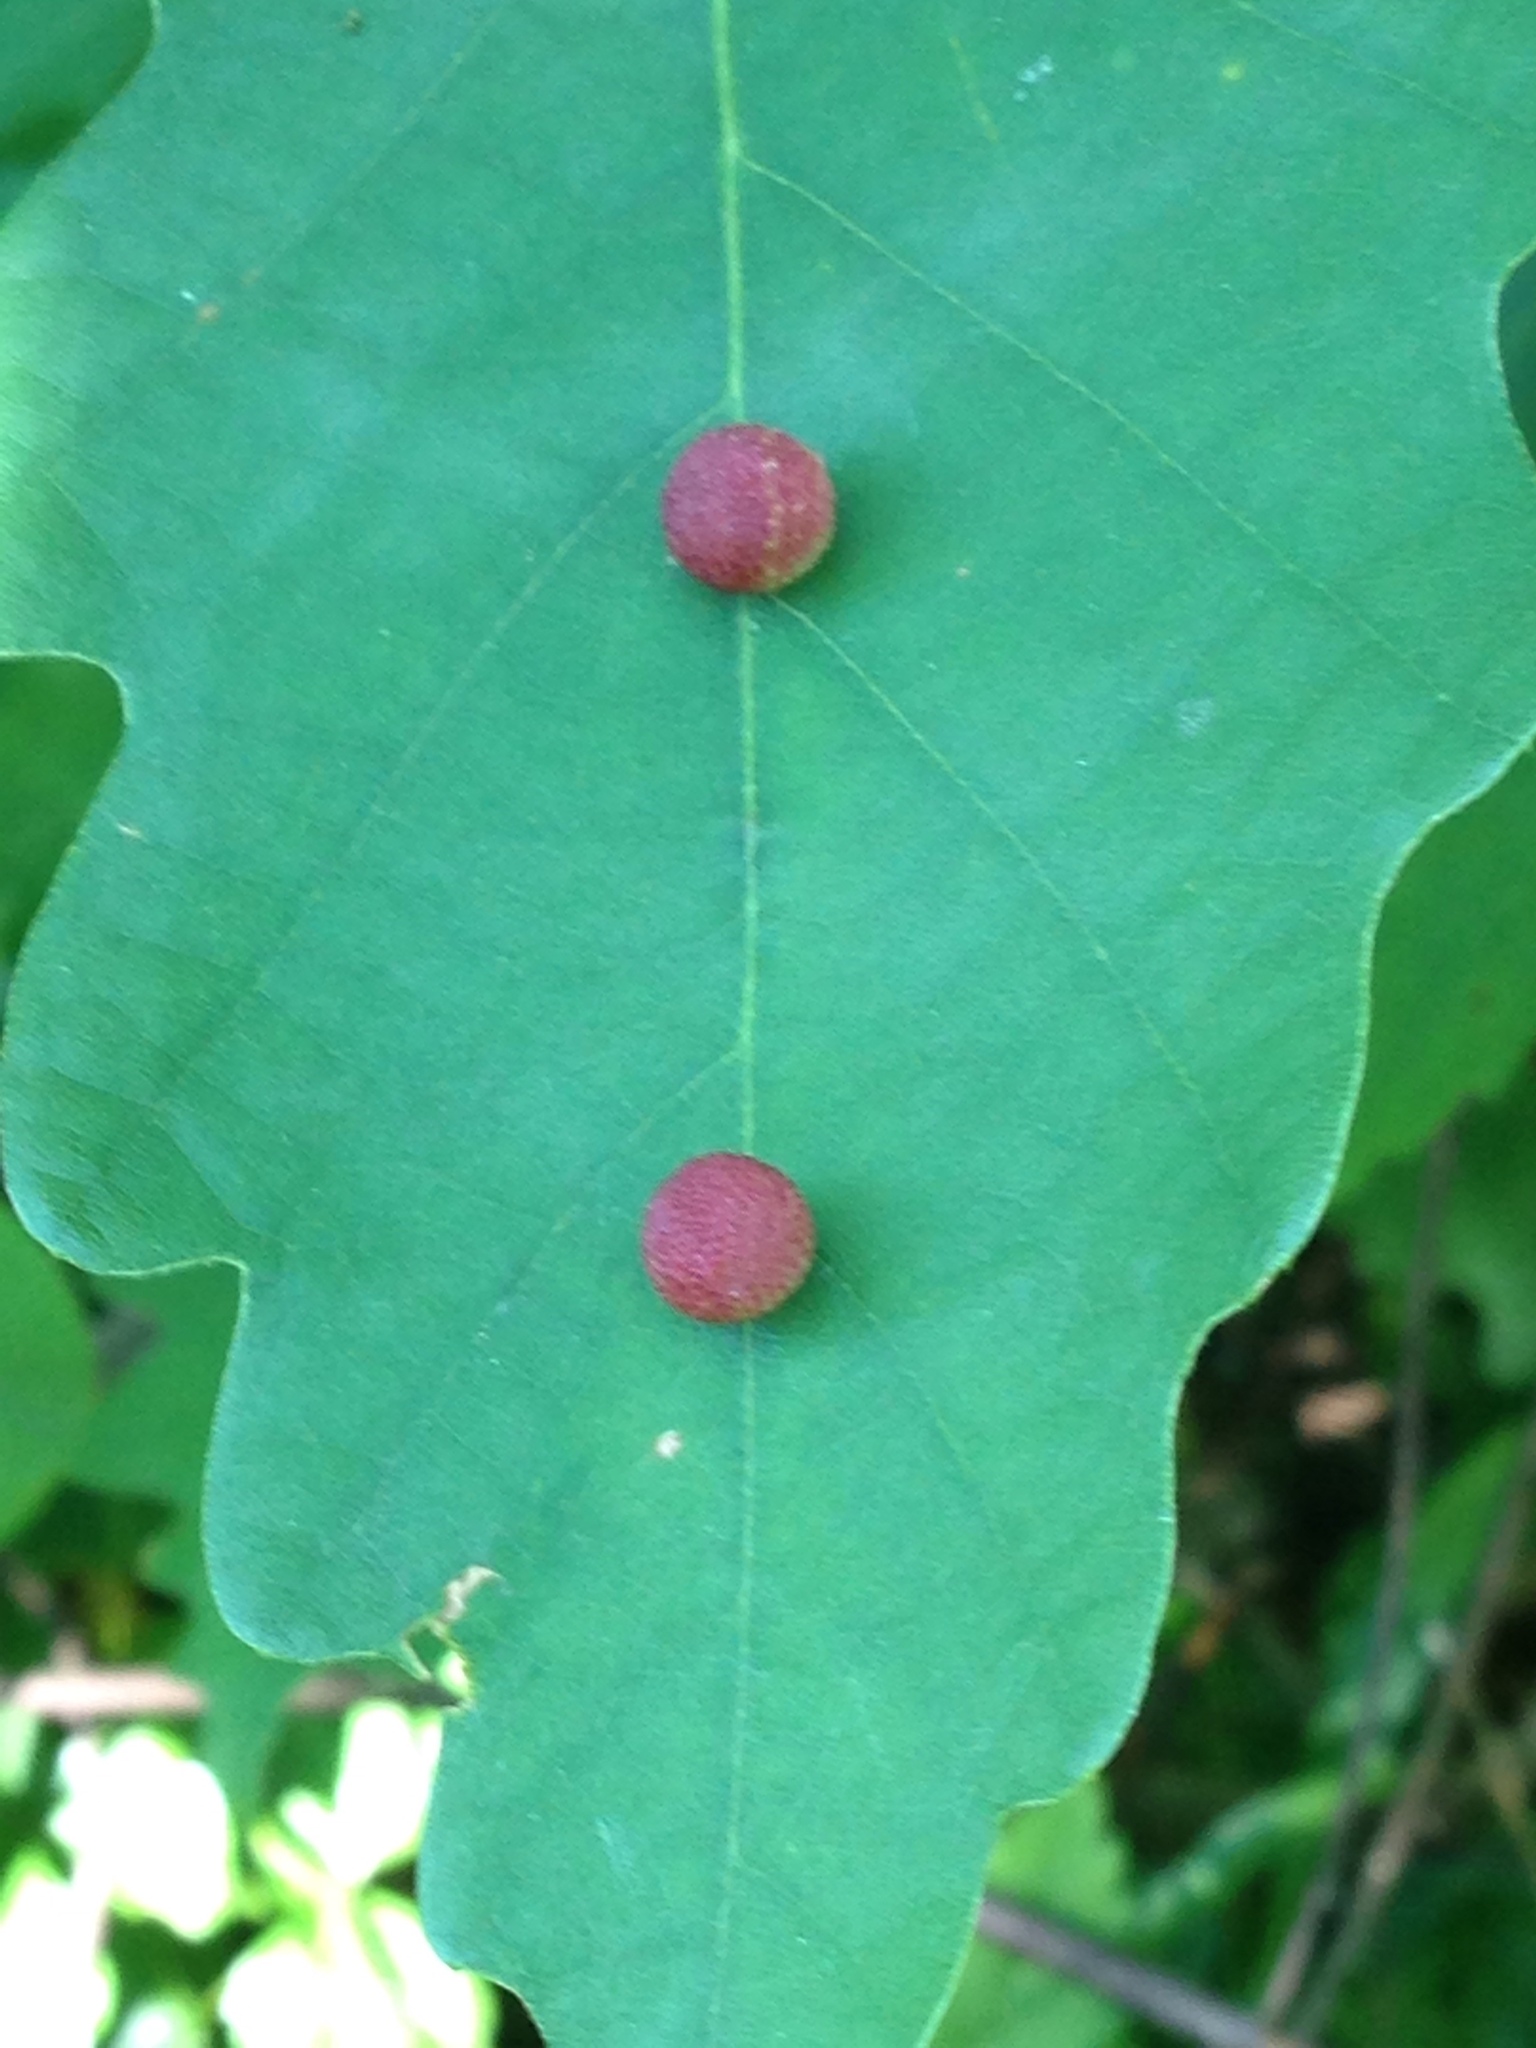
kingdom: Animalia
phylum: Arthropoda
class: Insecta
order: Hymenoptera
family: Cynipidae
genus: Acraspis
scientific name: Acraspis quercushirta
